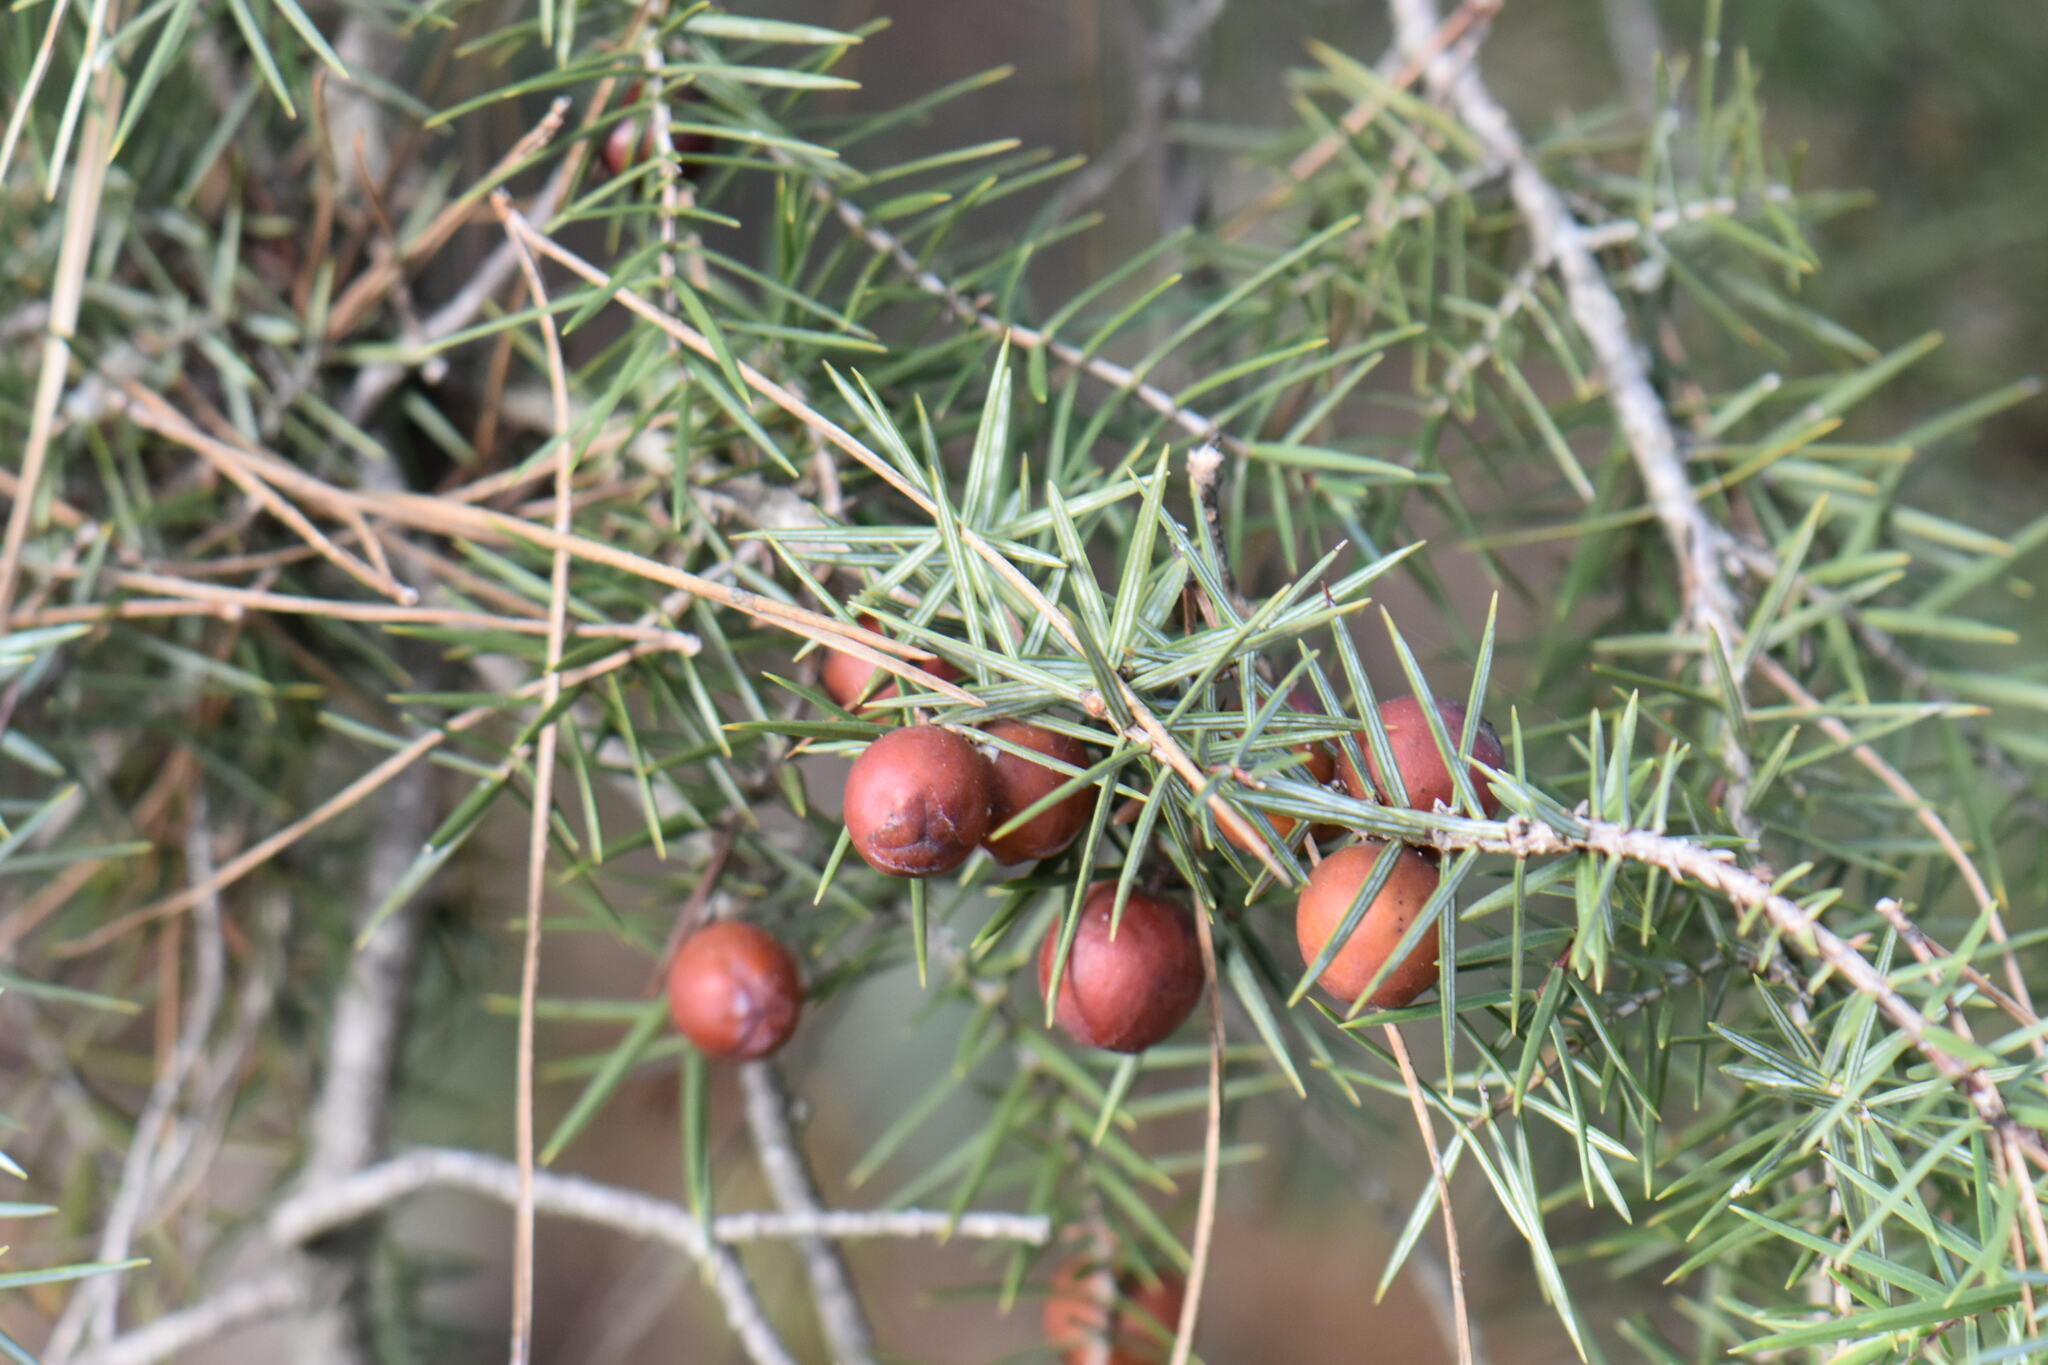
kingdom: Plantae
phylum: Tracheophyta
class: Pinopsida
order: Pinales
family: Cupressaceae
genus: Juniperus
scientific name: Juniperus oxycedrus
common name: Prickly juniper
